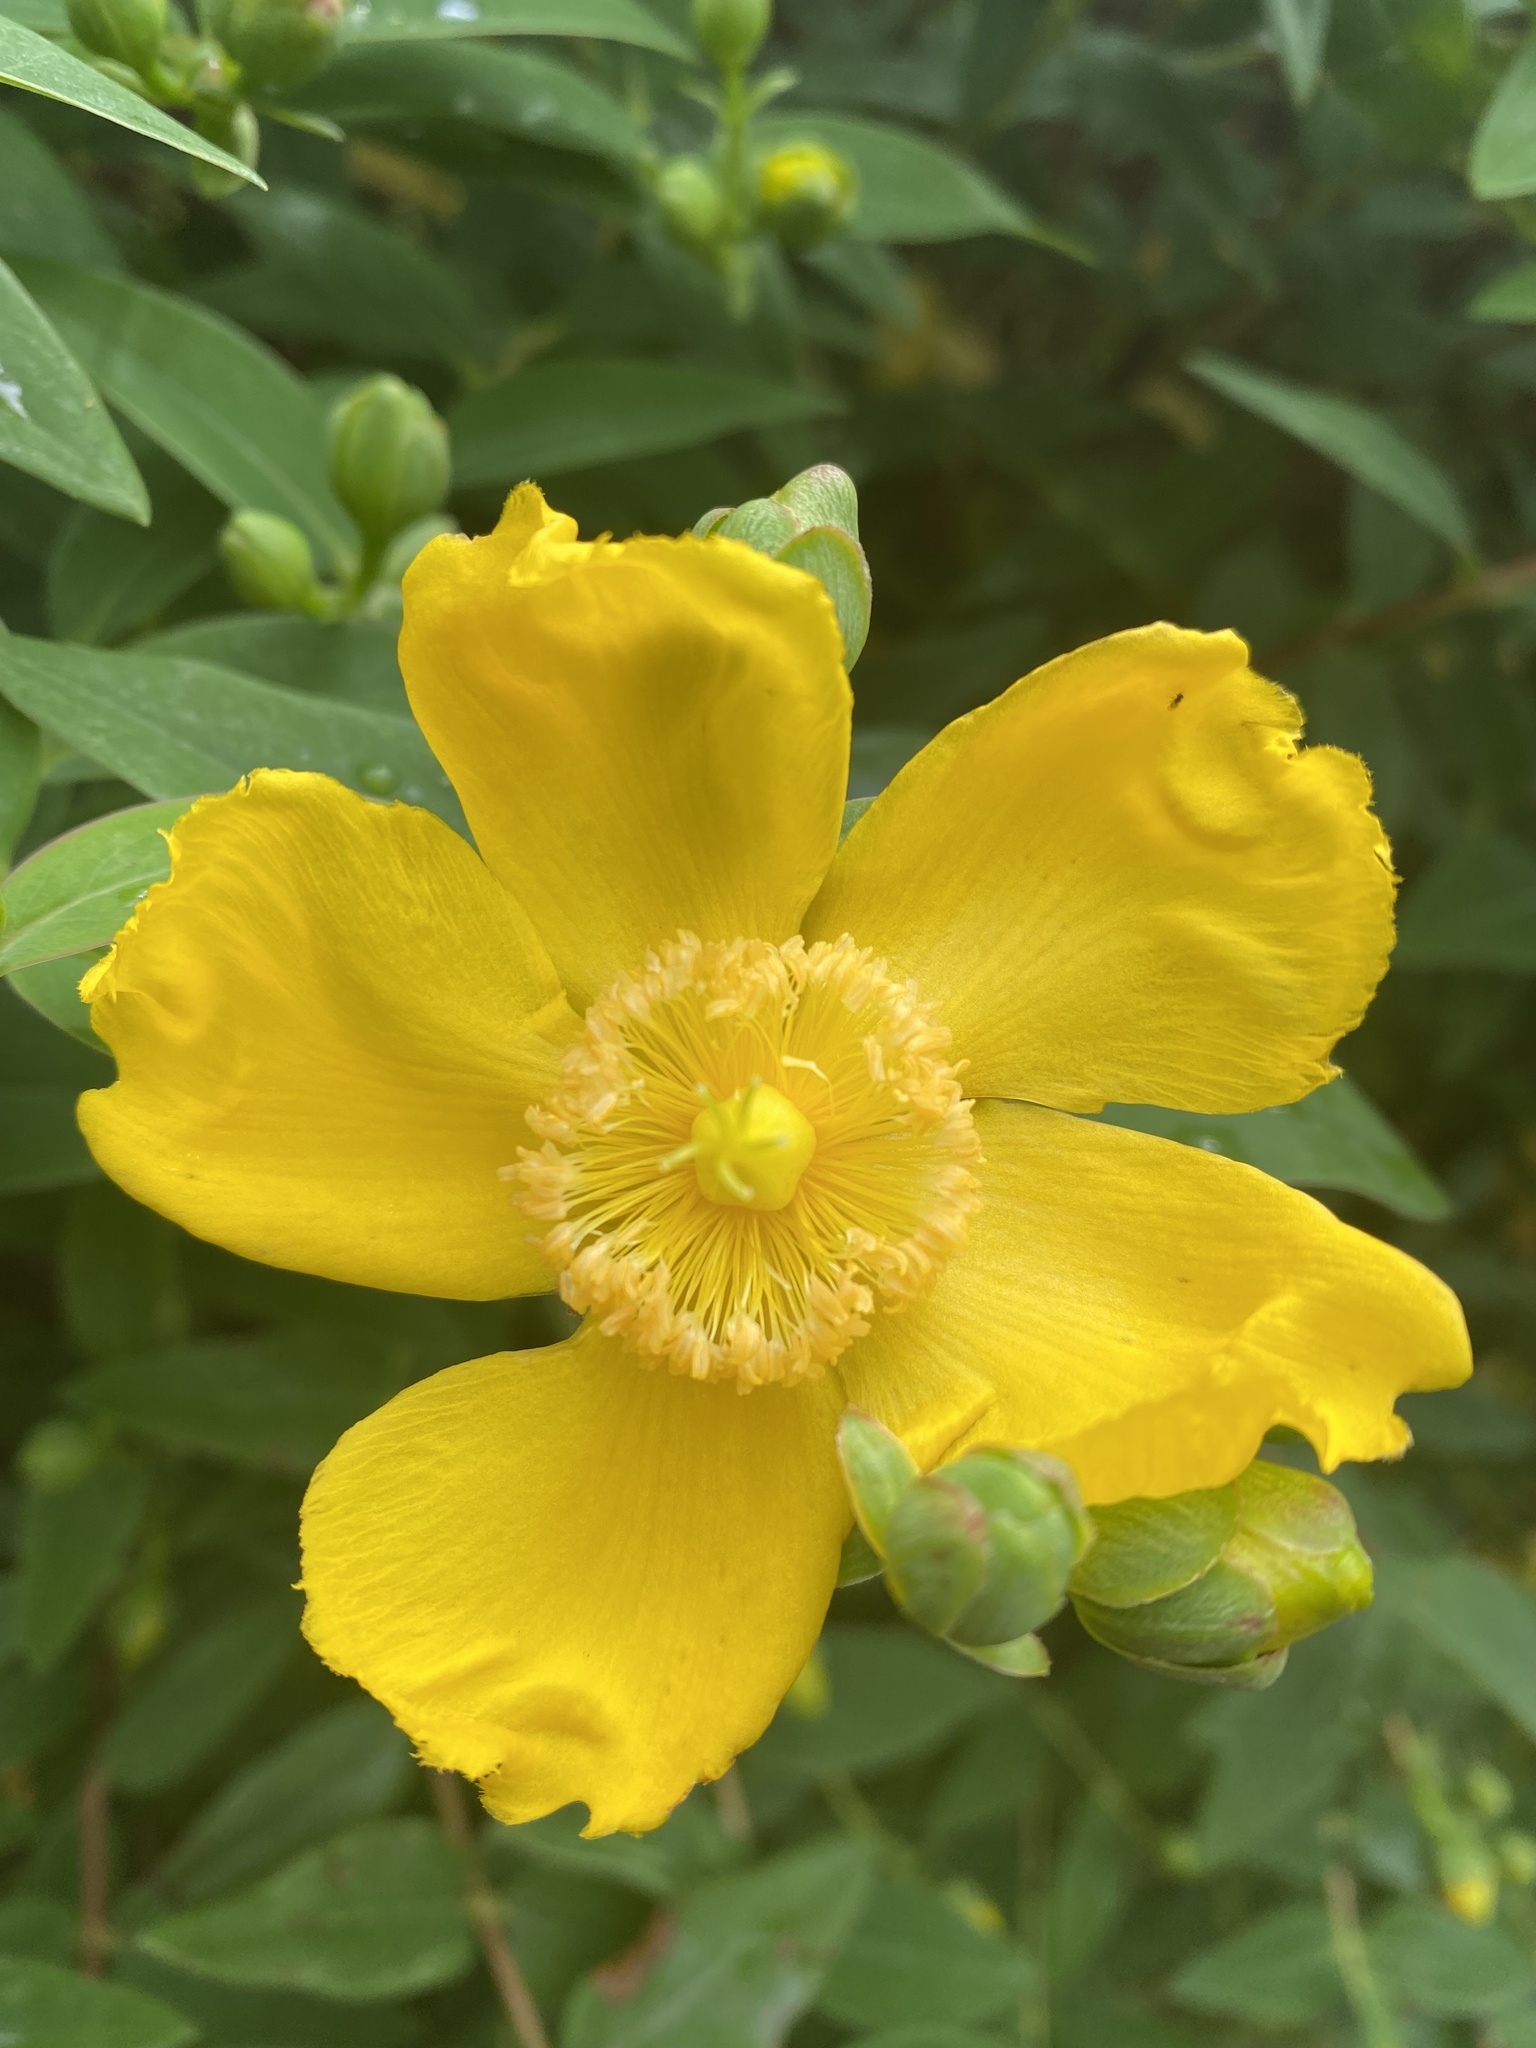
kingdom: Plantae
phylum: Tracheophyta
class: Magnoliopsida
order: Malpighiales
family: Hypericaceae
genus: Hypericum
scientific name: Hypericum hidcoteense
